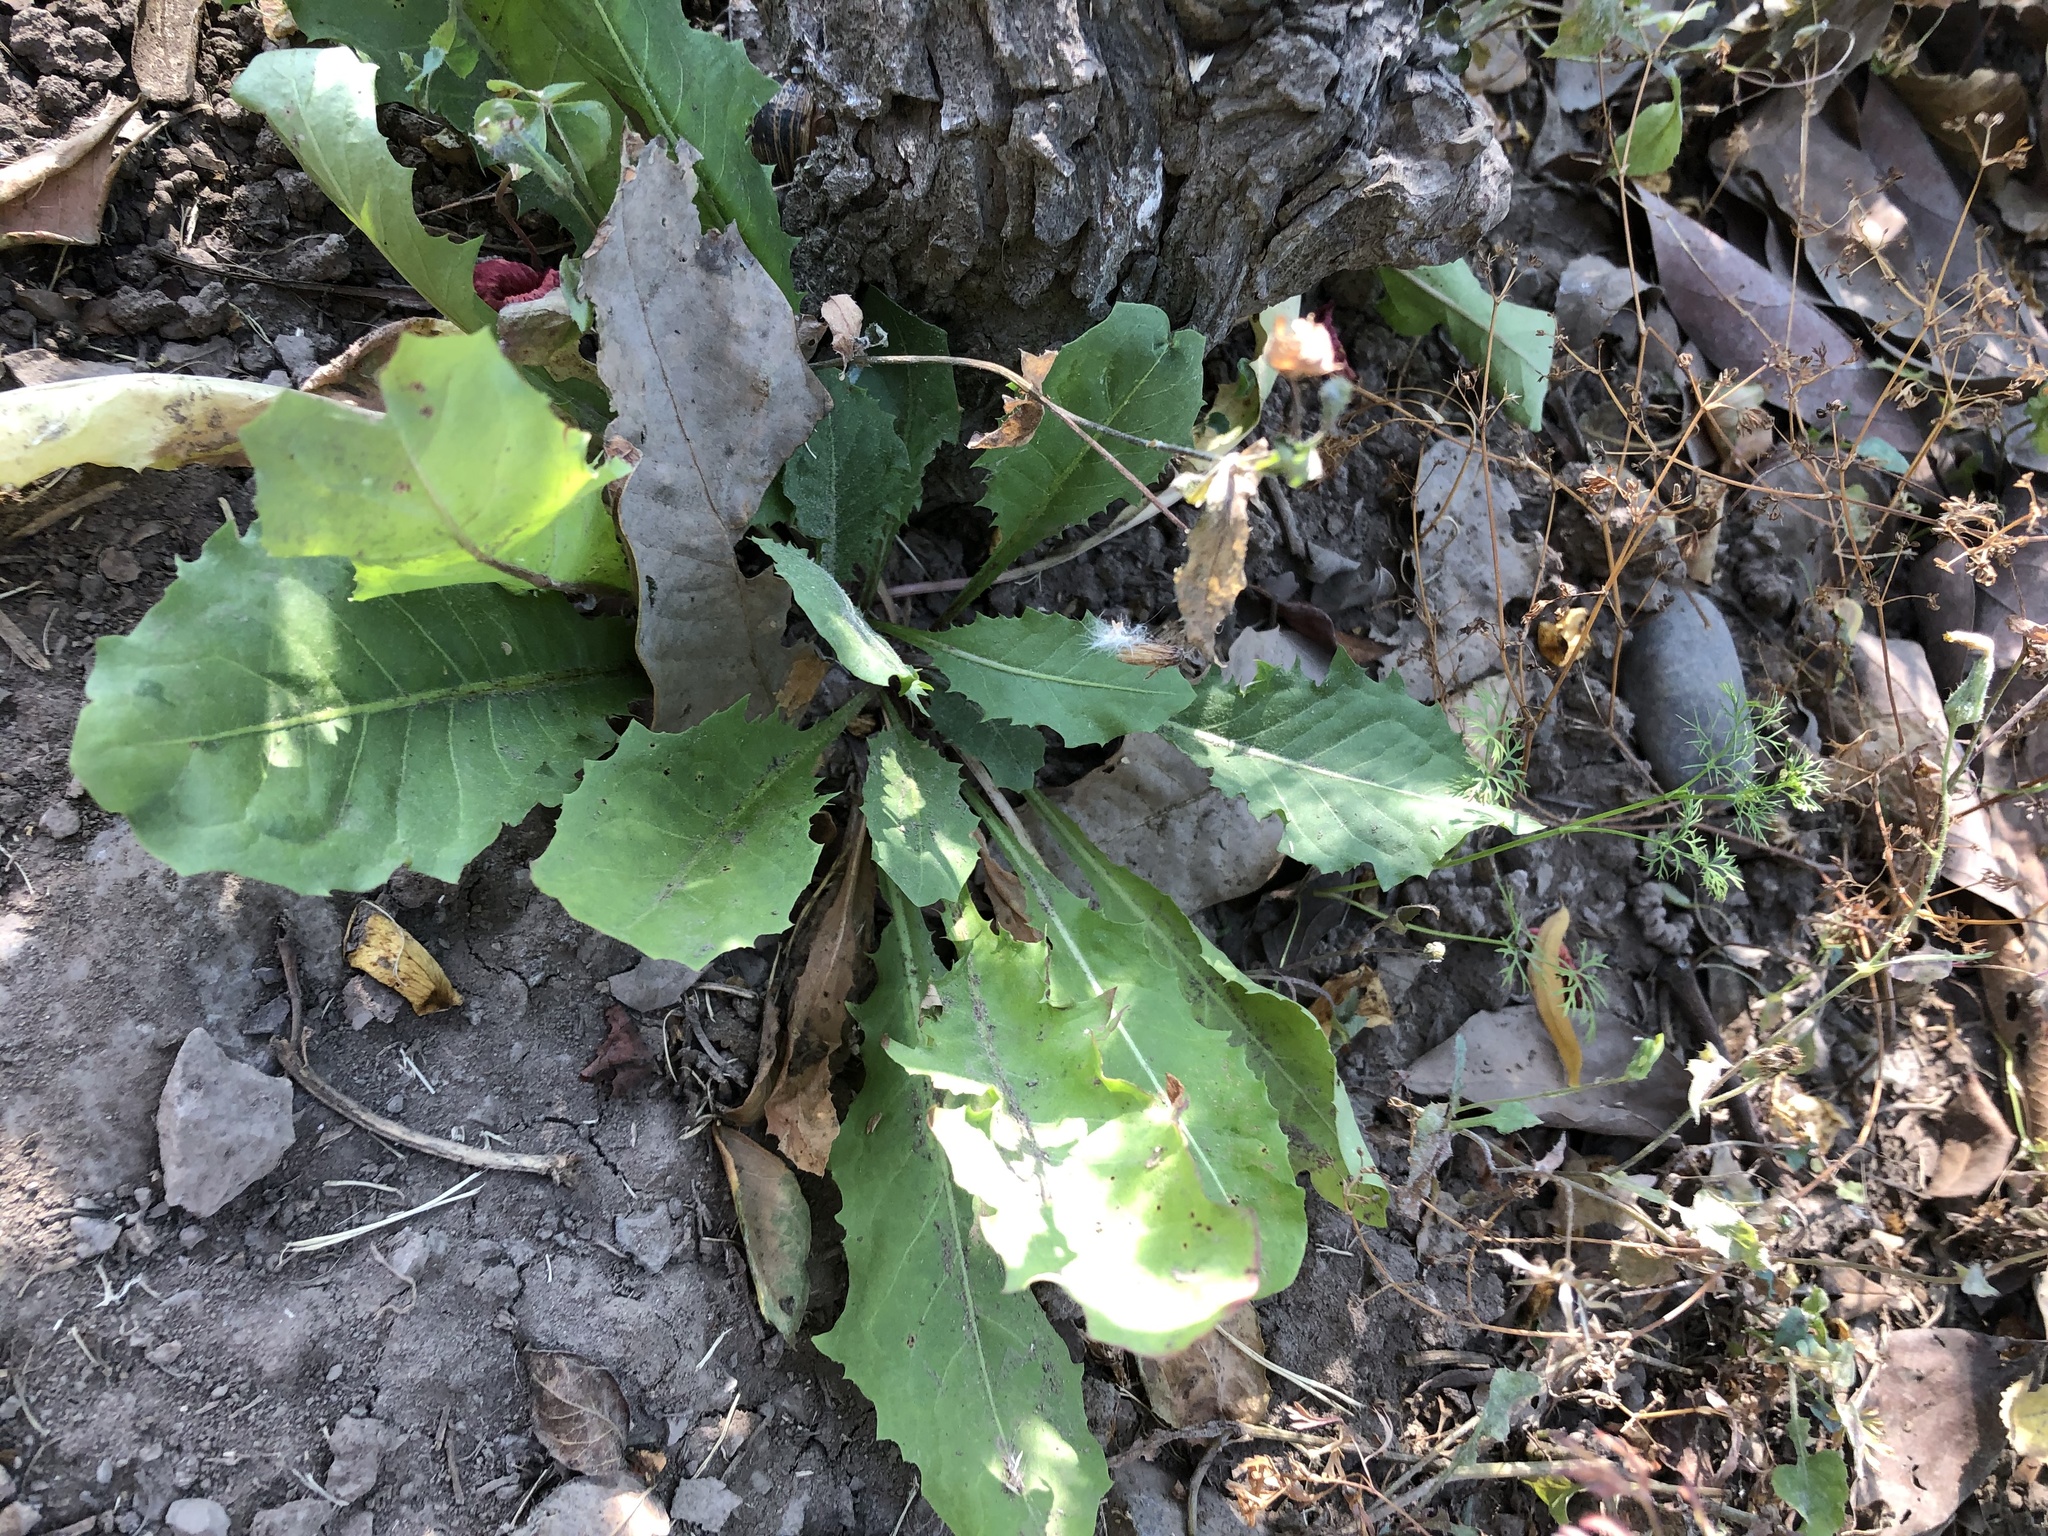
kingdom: Plantae
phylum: Tracheophyta
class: Magnoliopsida
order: Asterales
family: Asteraceae
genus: Taraxacum
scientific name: Taraxacum officinale
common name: Common dandelion
